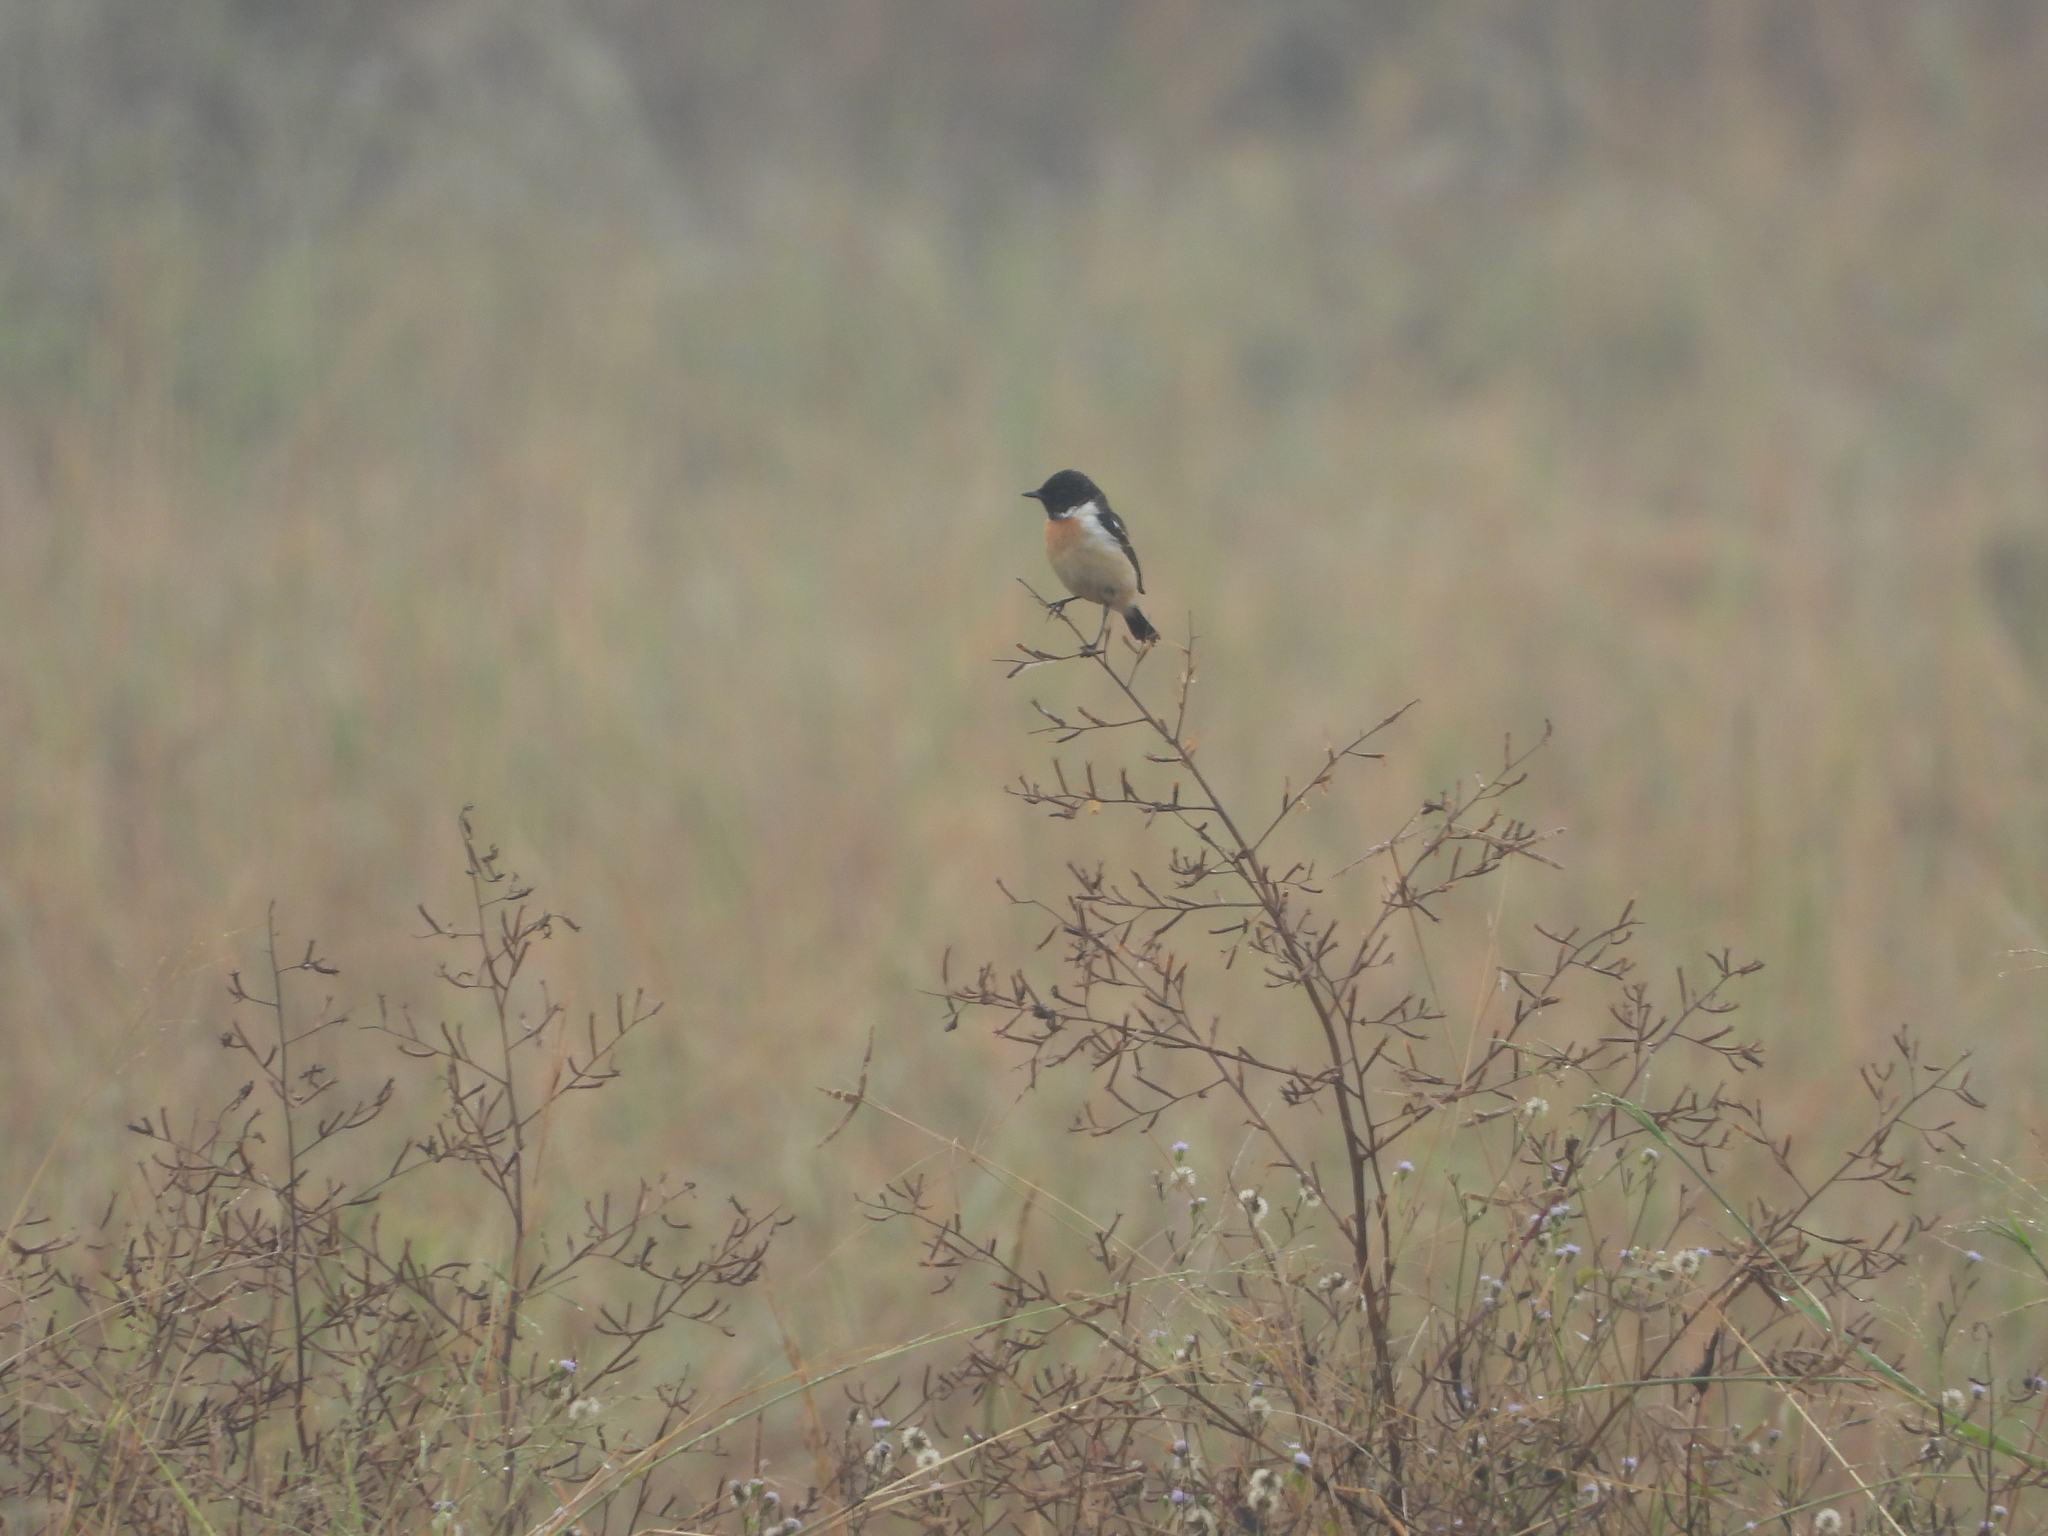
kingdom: Animalia
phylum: Chordata
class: Aves
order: Passeriformes
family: Muscicapidae
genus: Saxicola
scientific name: Saxicola stejnegeri
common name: Stejneger's stonechat
